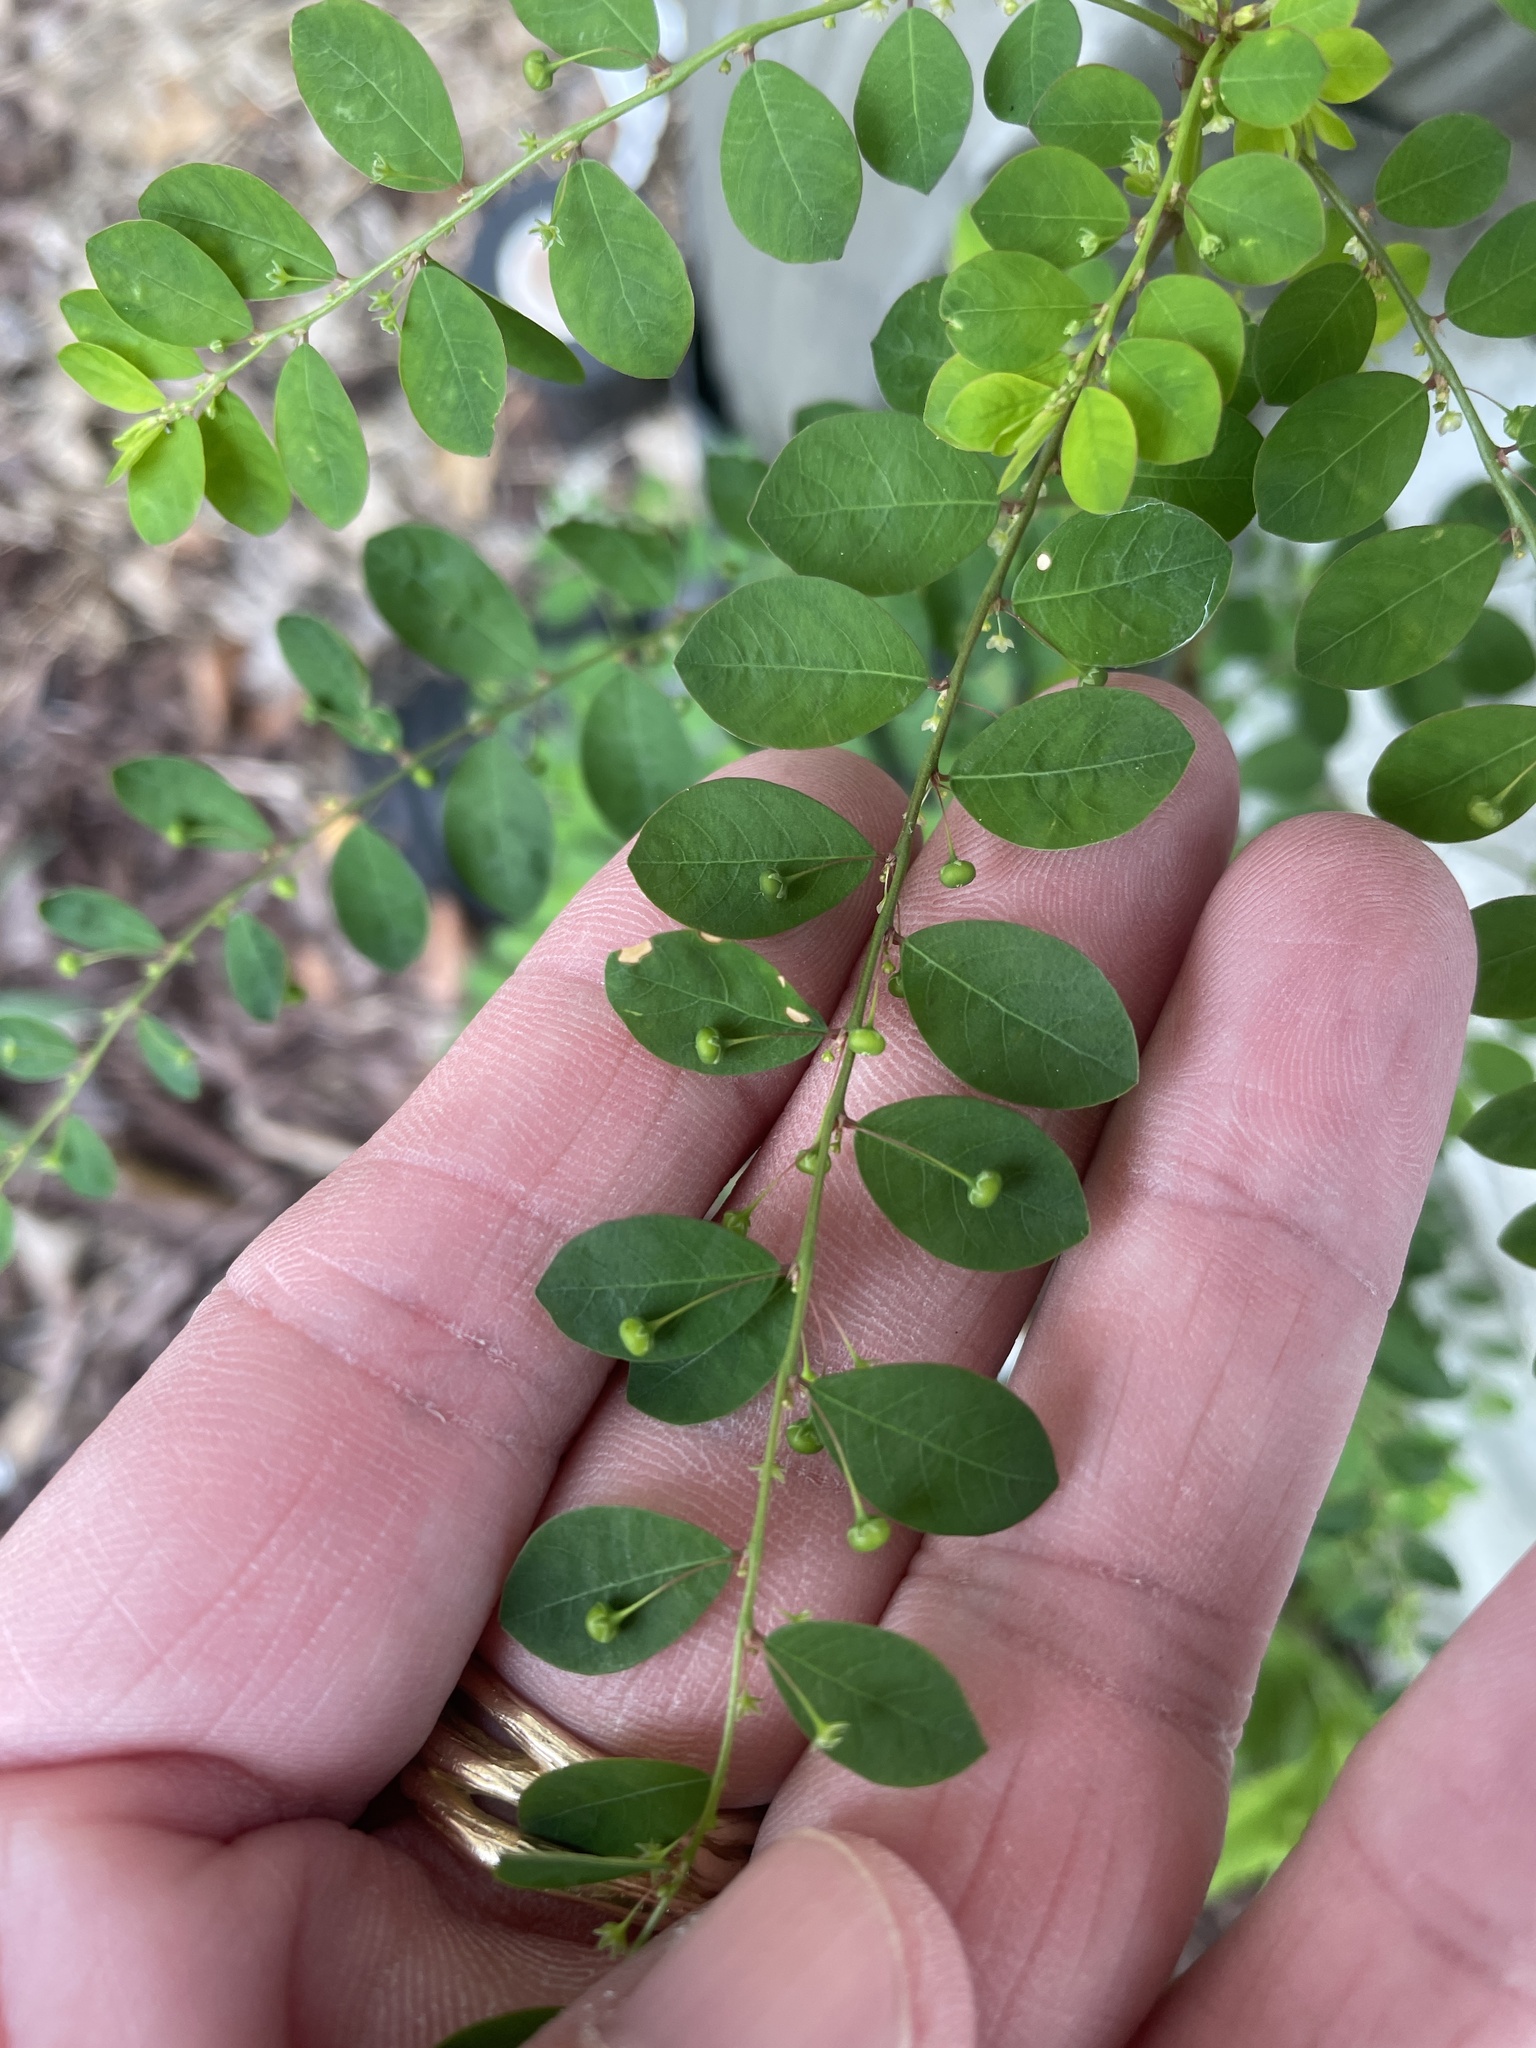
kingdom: Plantae
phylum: Tracheophyta
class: Magnoliopsida
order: Malpighiales
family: Phyllanthaceae
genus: Phyllanthus
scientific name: Phyllanthus tenellus
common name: Mascarene island leaf-flower
